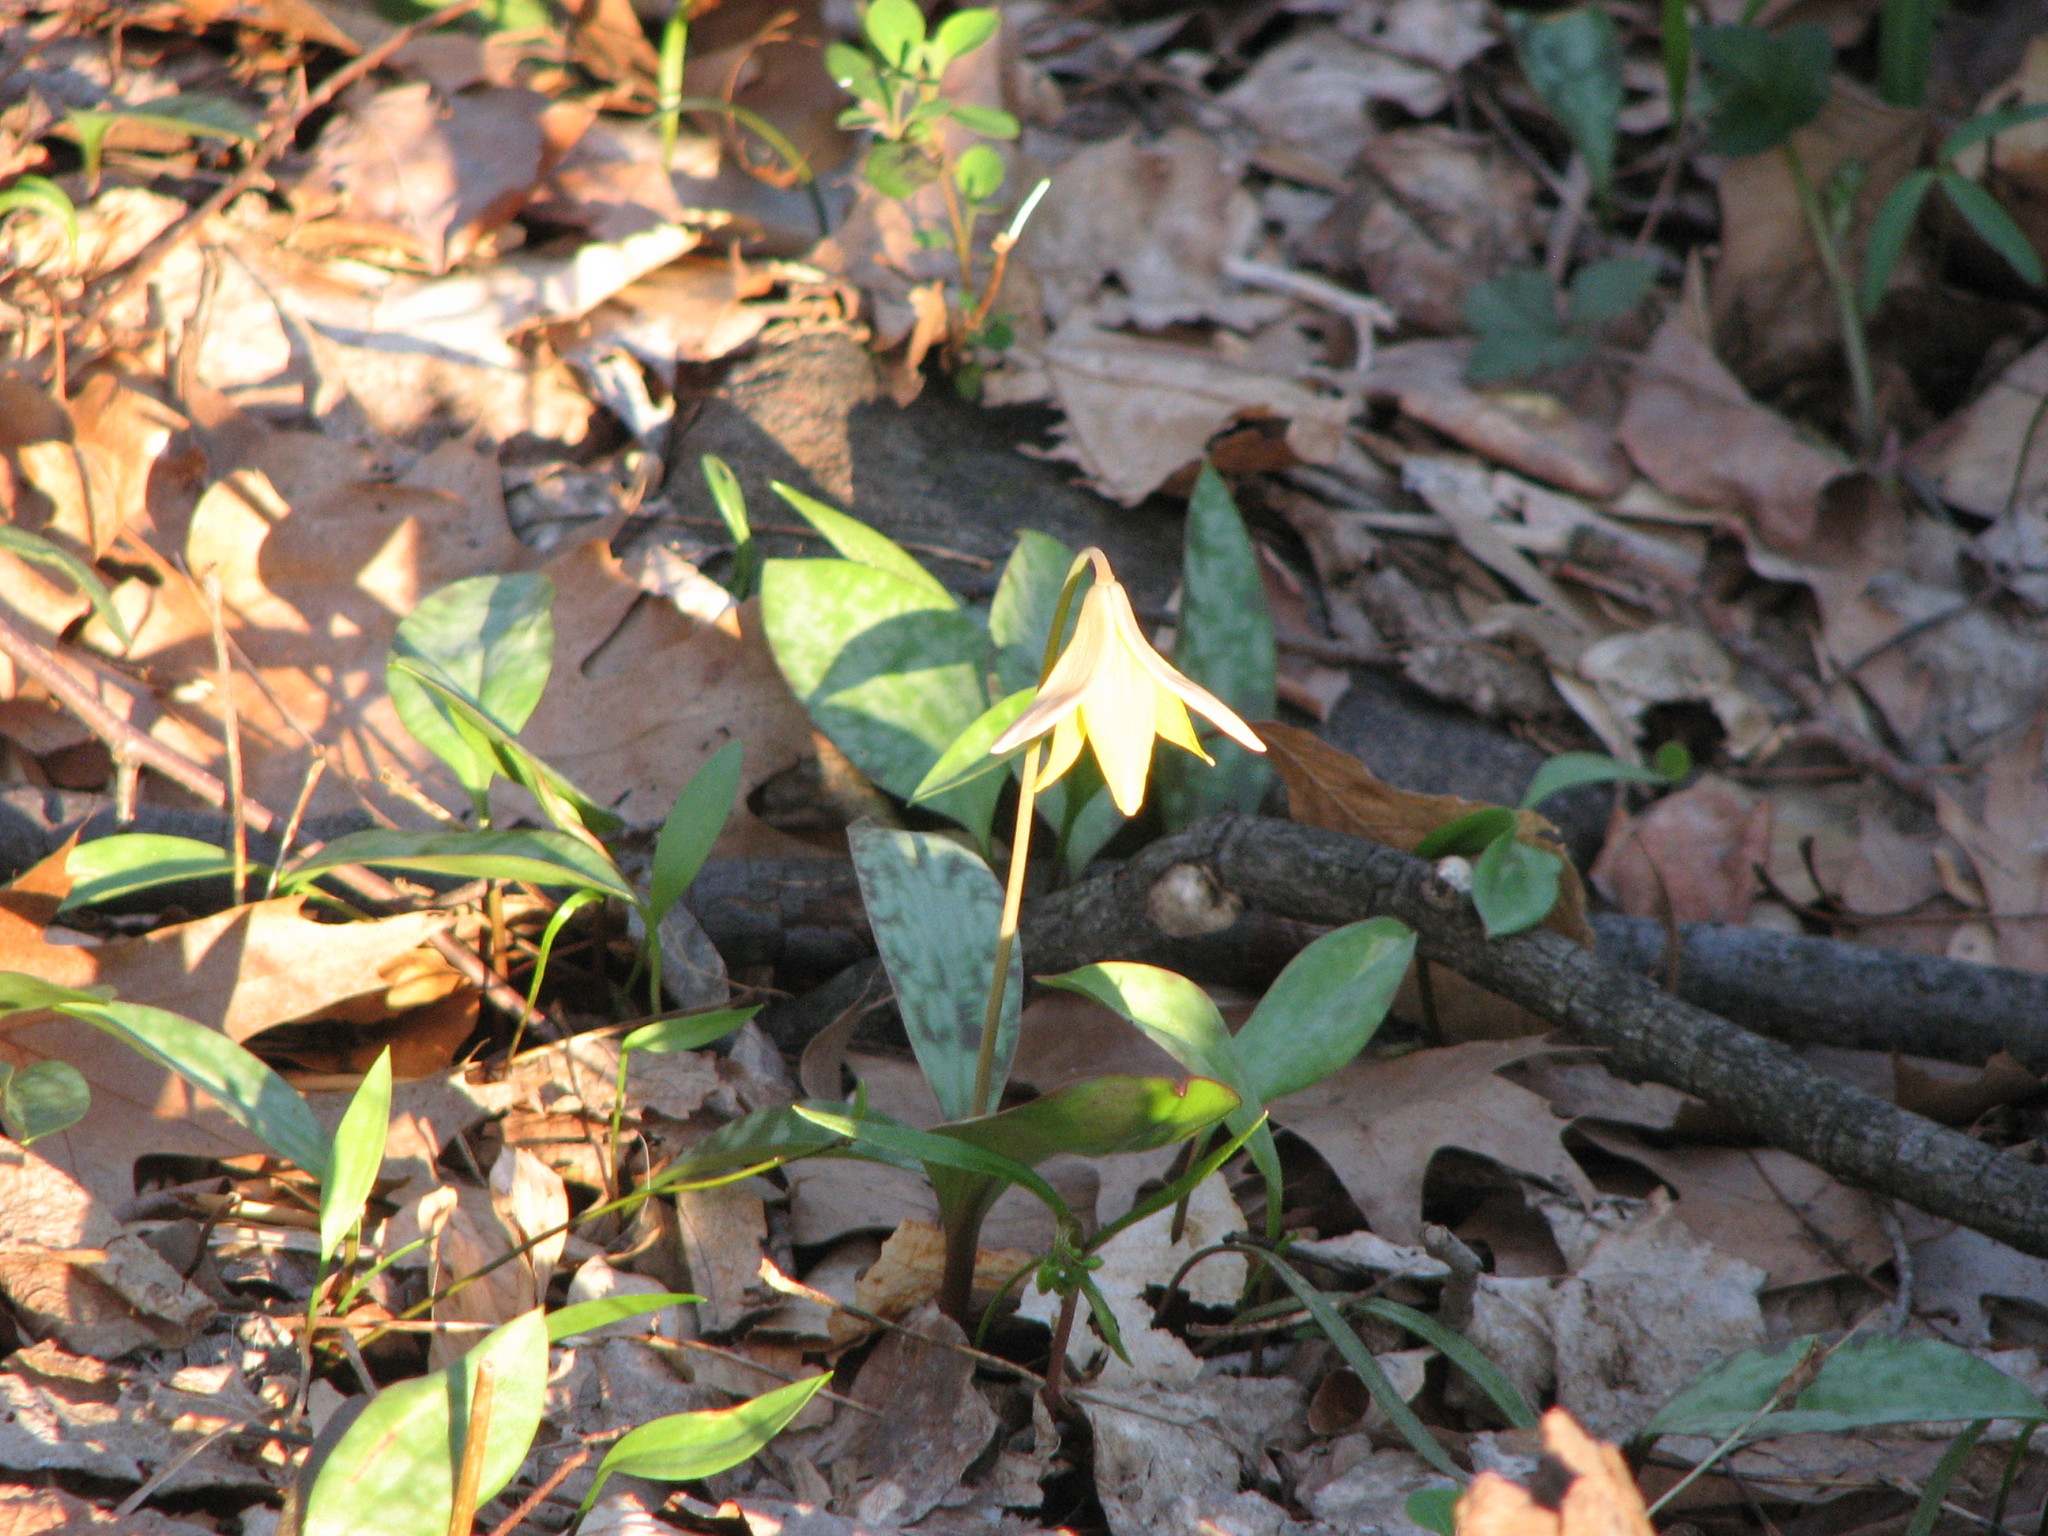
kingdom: Plantae
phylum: Tracheophyta
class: Liliopsida
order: Liliales
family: Liliaceae
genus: Erythronium
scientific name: Erythronium americanum
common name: Yellow adder's-tongue
